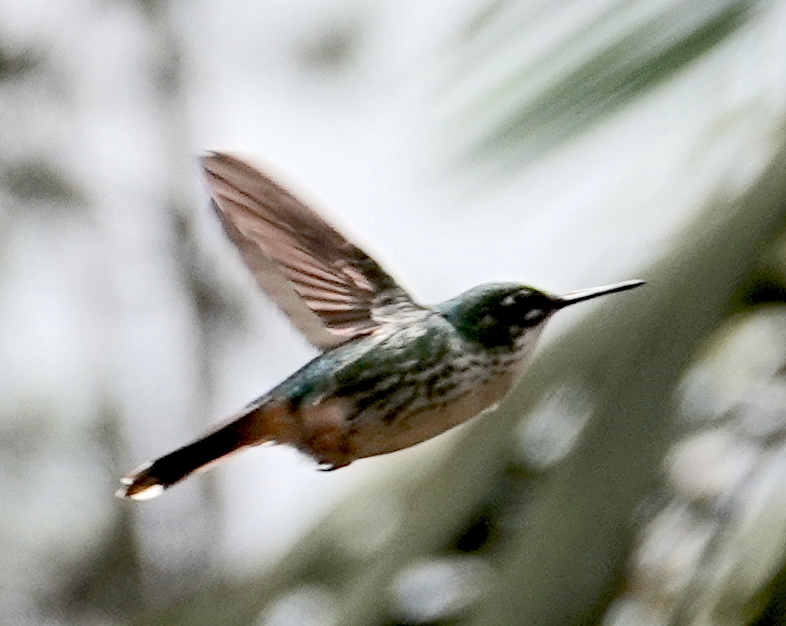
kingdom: Animalia
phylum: Chordata
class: Aves
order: Apodiformes
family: Trochilidae
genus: Ocreatus
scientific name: Ocreatus underwoodii
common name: Booted racket-tail
